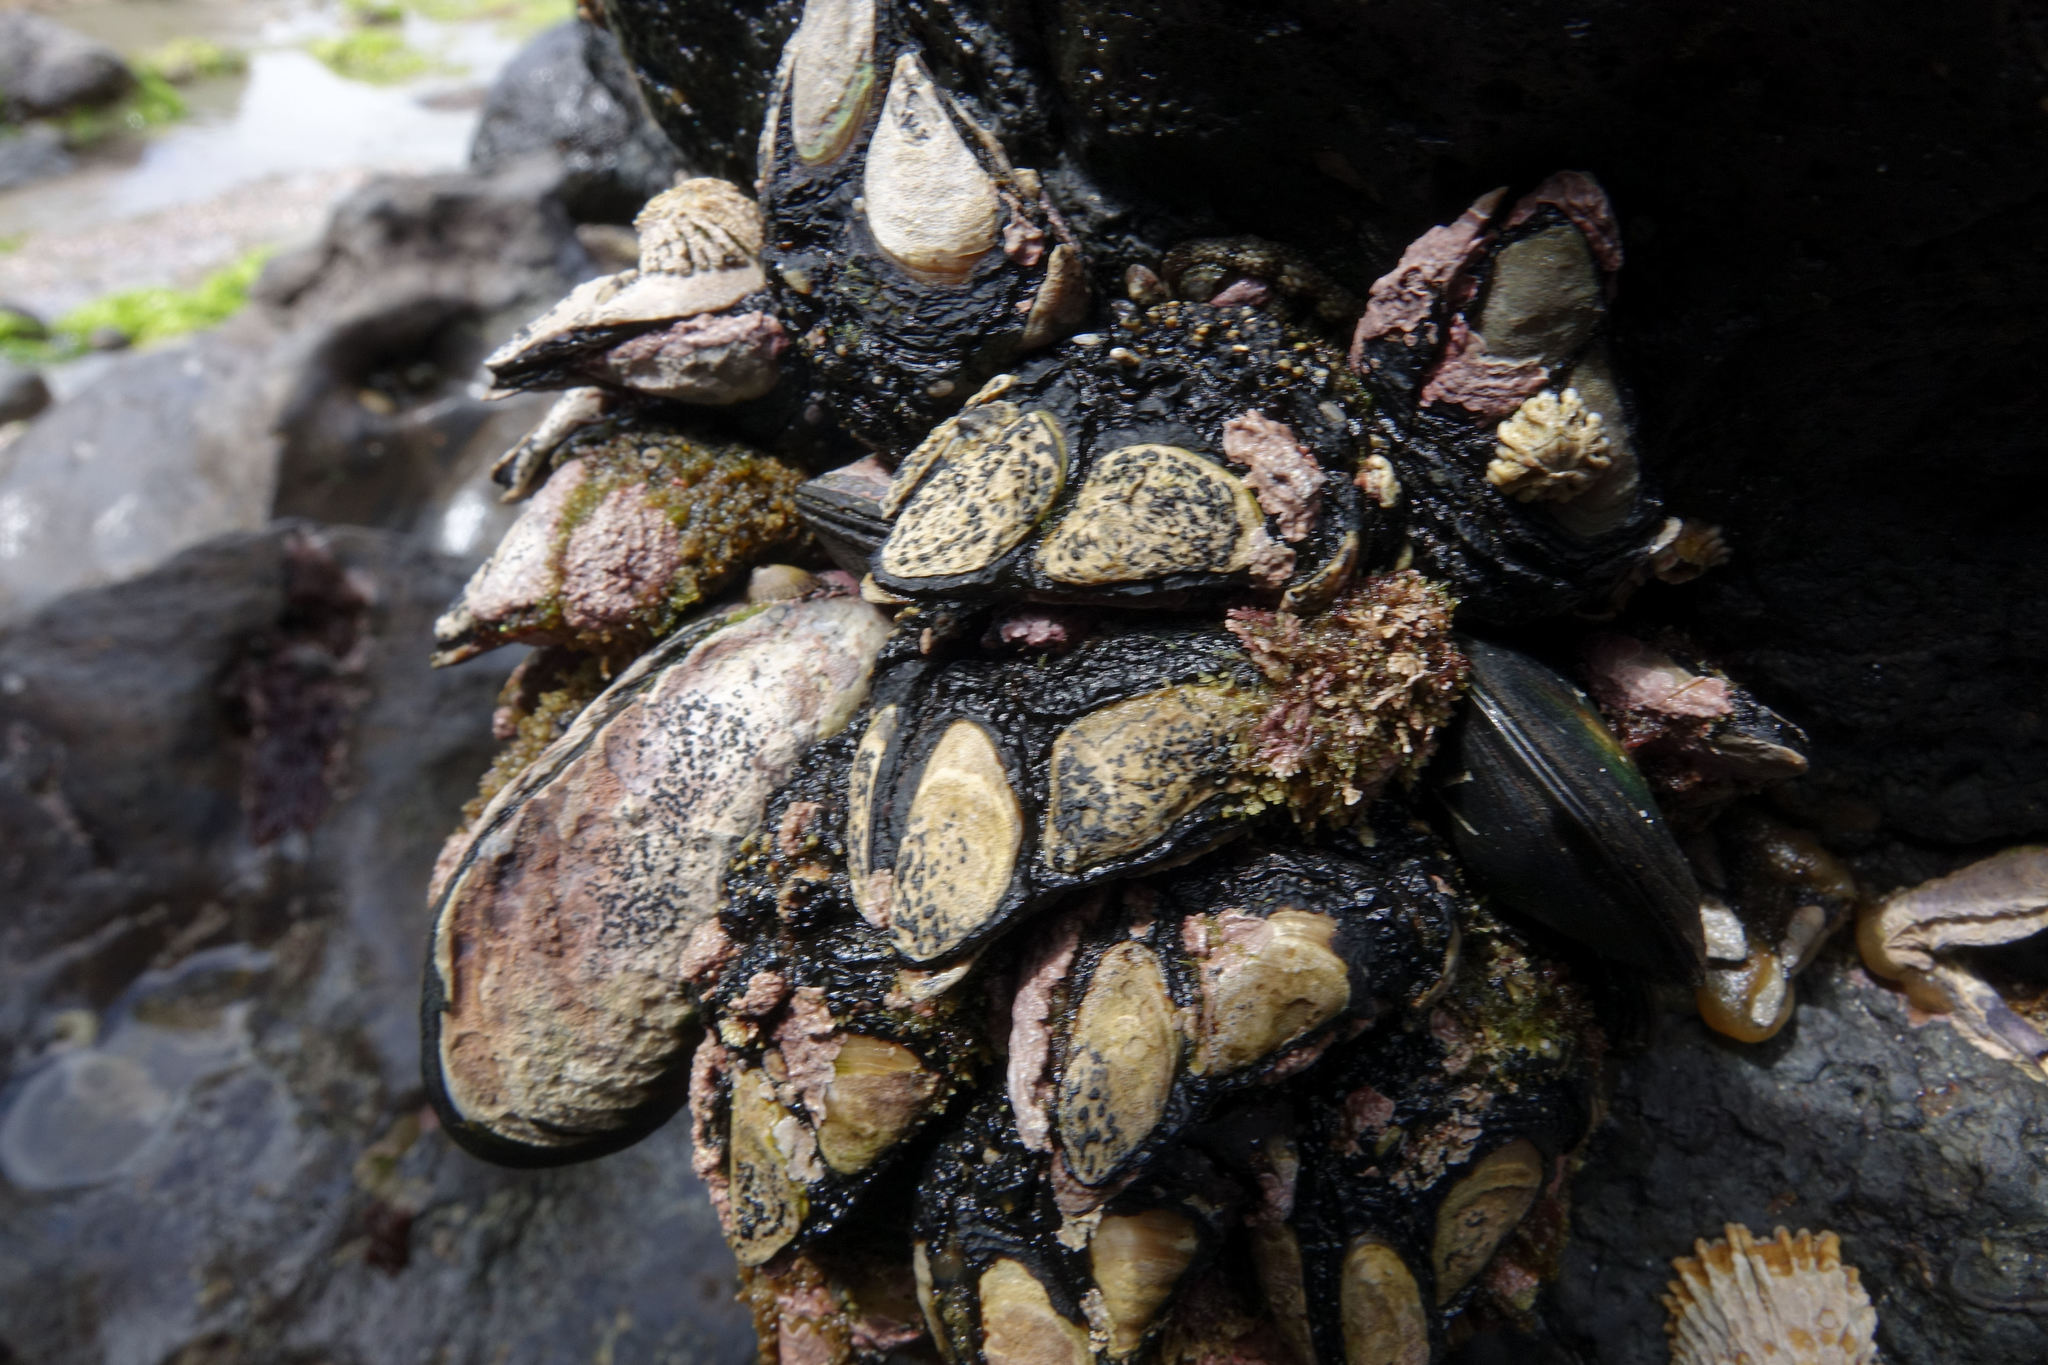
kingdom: Animalia
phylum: Arthropoda
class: Maxillopoda
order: Pedunculata
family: Calanticidae
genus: Calantica
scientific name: Calantica spinosa
